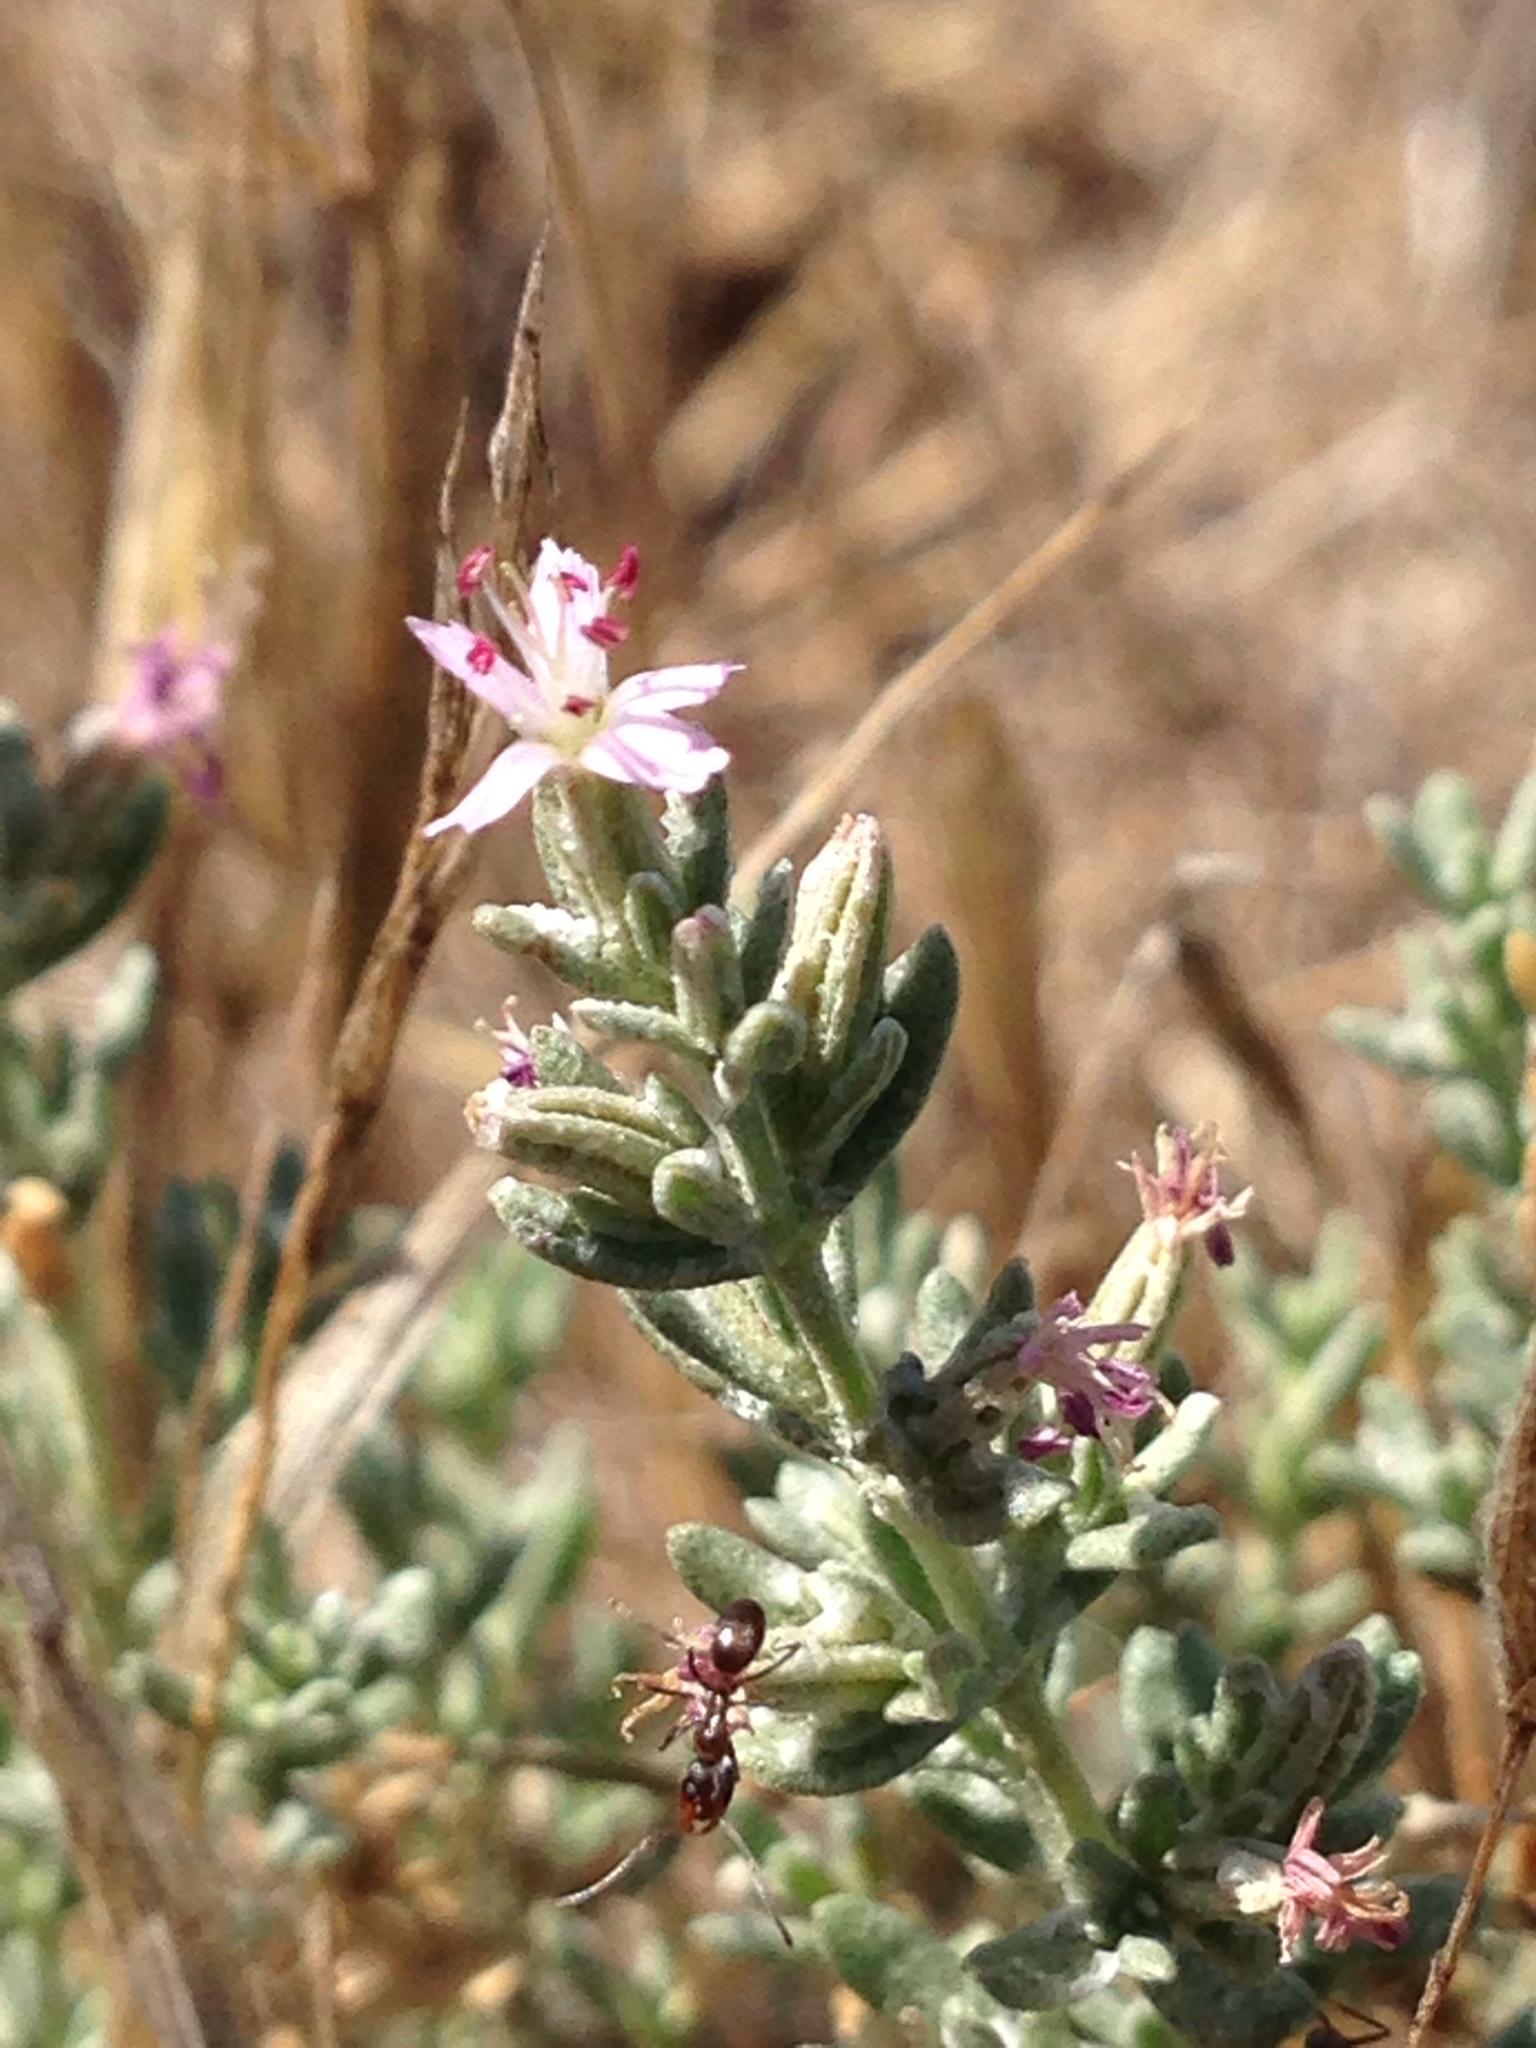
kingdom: Plantae
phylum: Tracheophyta
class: Magnoliopsida
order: Caryophyllales
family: Frankeniaceae
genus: Frankenia
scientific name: Frankenia salina
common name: Alkali seaheath
